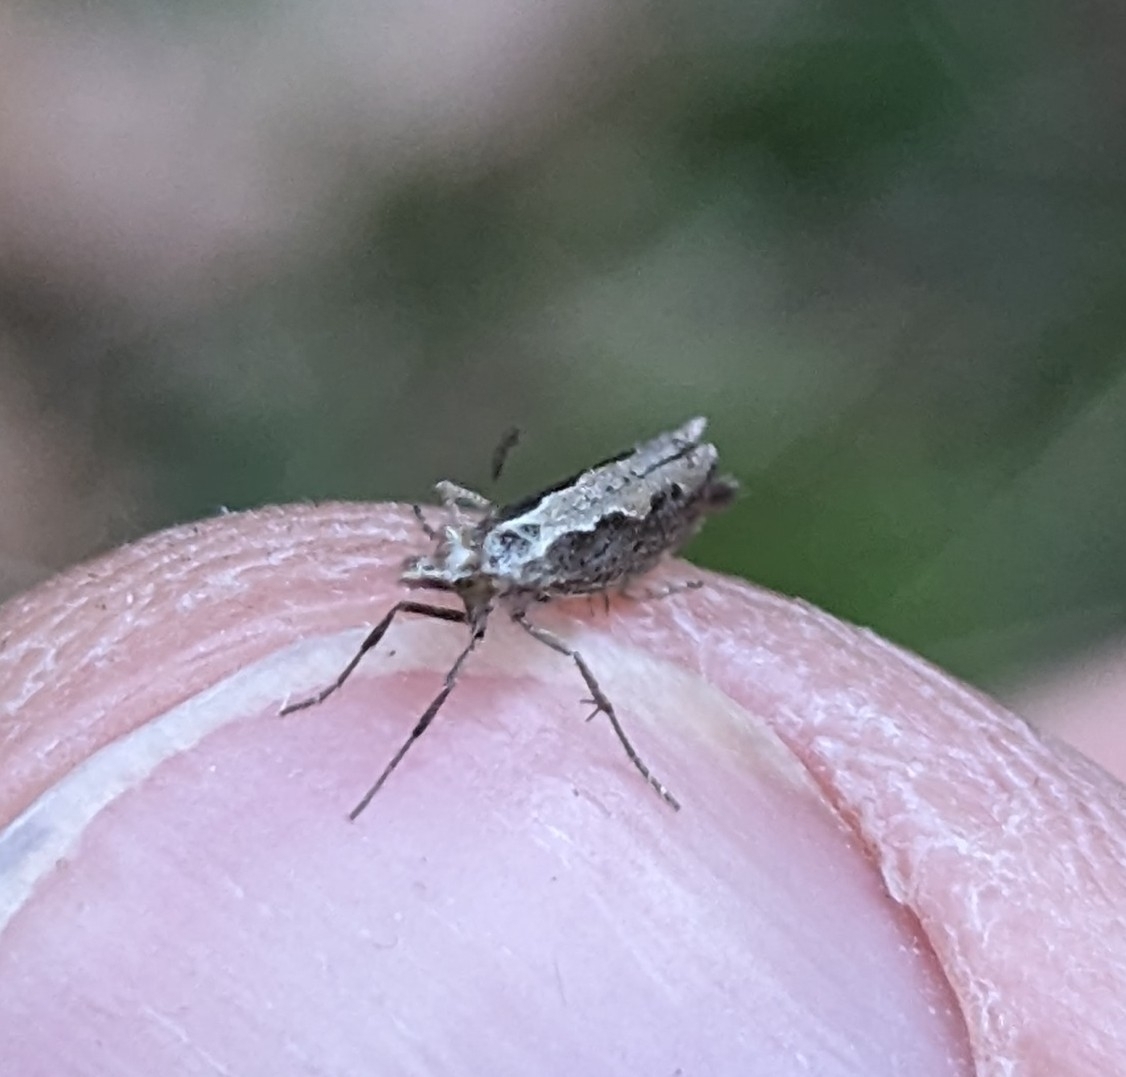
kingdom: Animalia
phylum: Arthropoda
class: Insecta
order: Lepidoptera
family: Plutellidae
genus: Plutella
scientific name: Plutella xylostella
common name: Diamond-back moth
